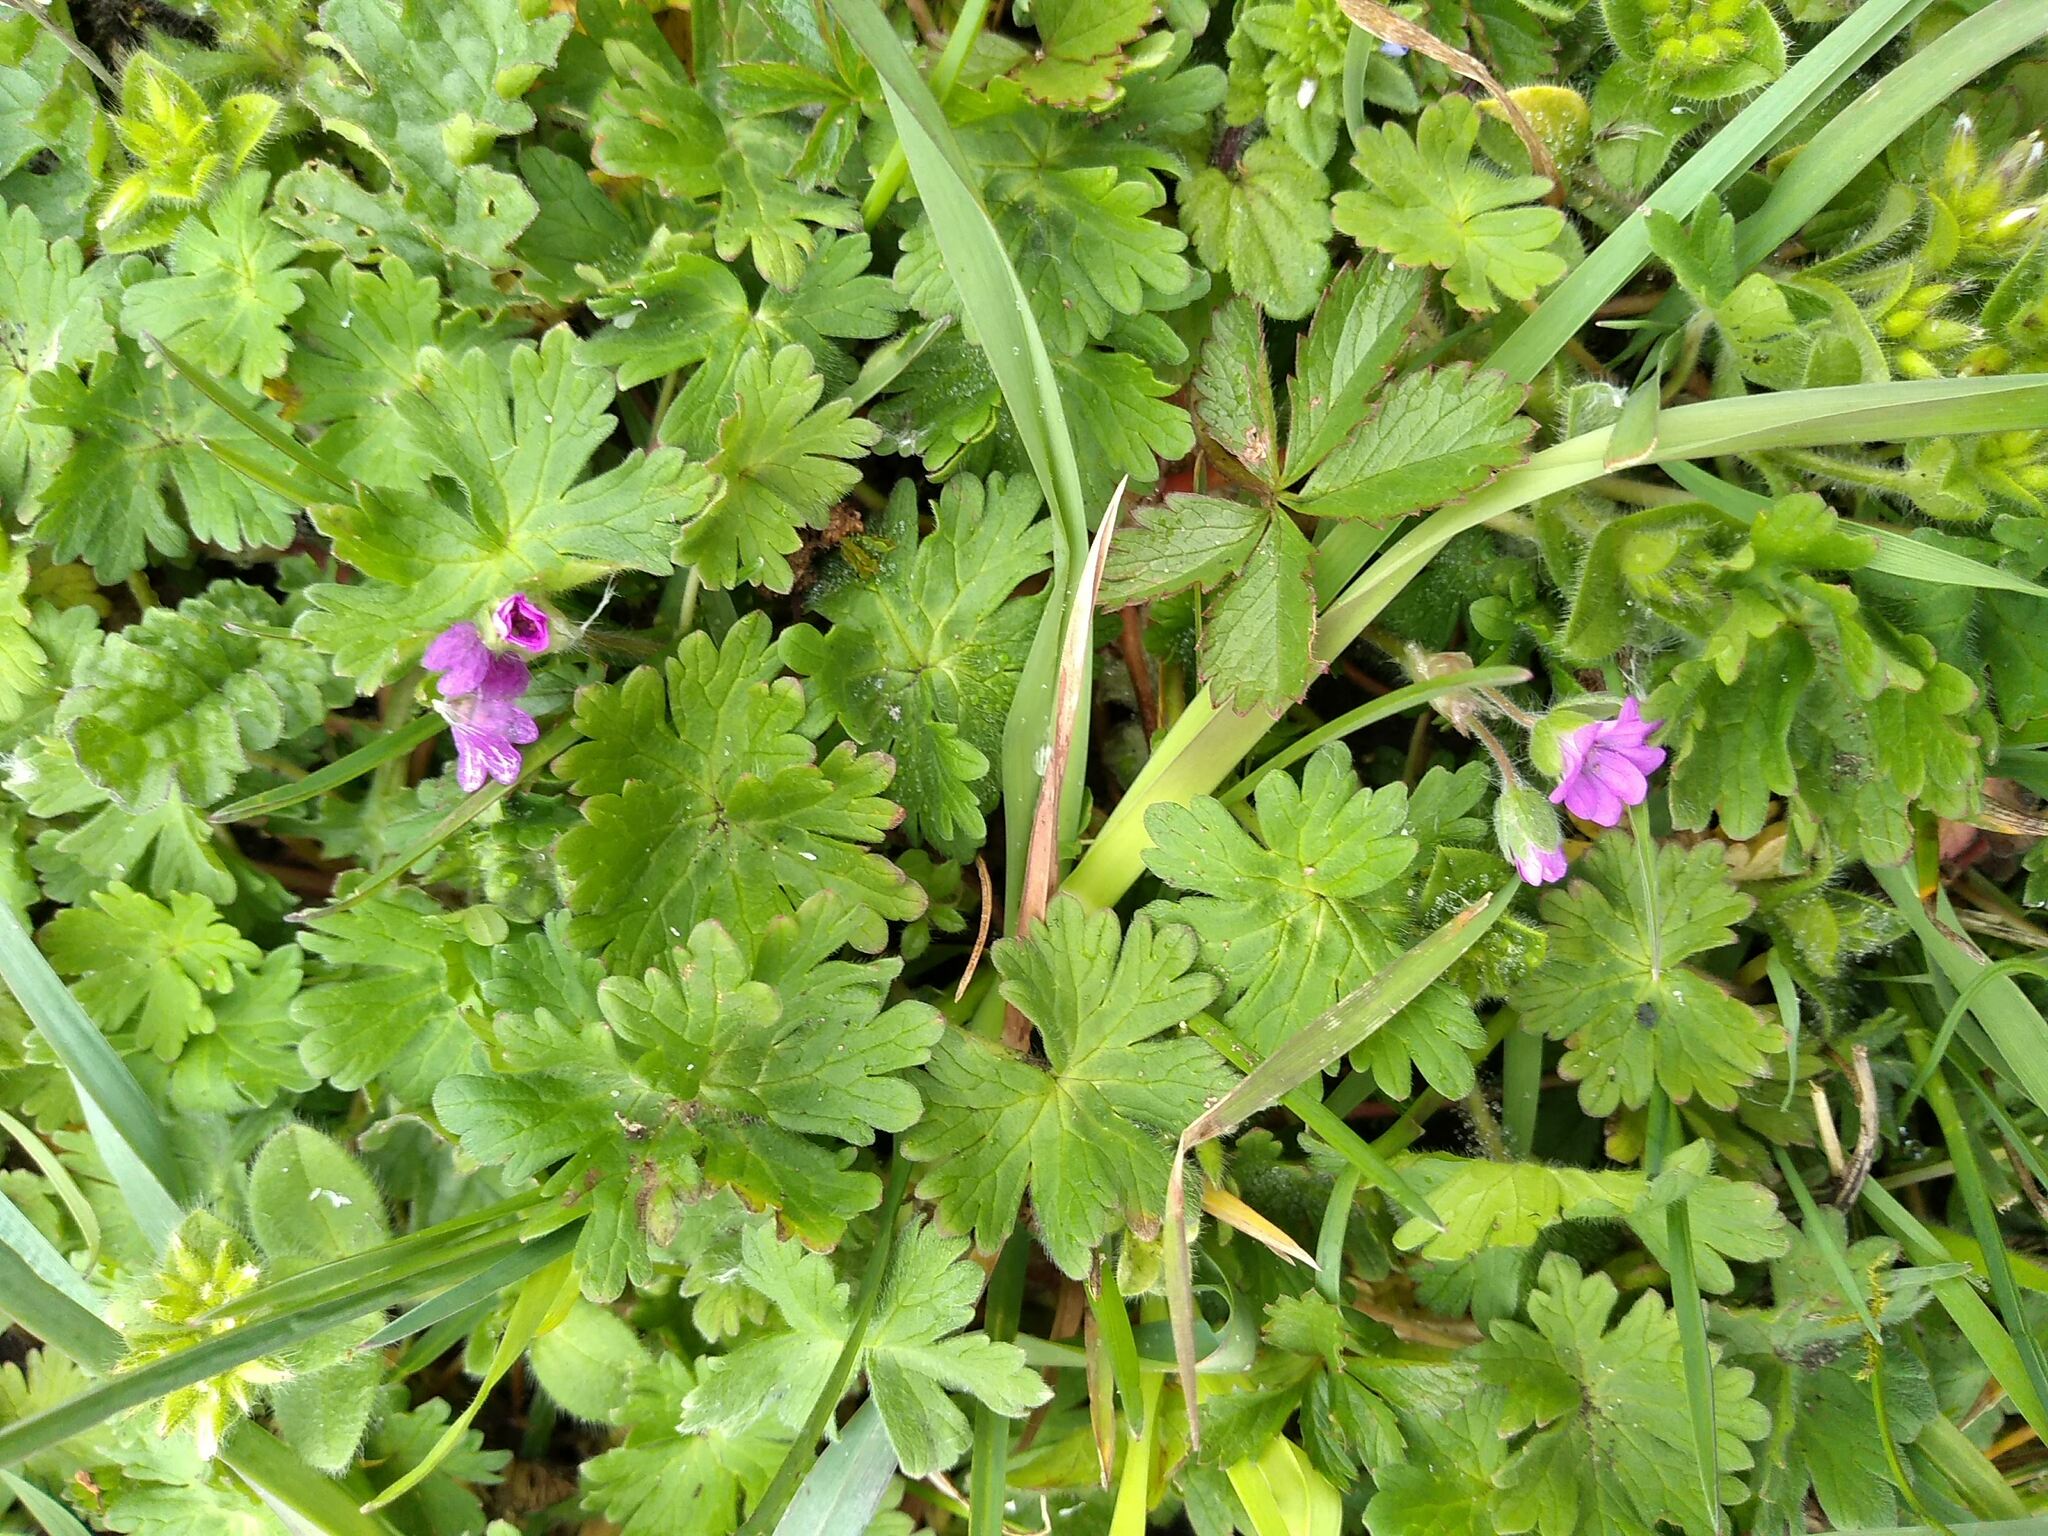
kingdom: Plantae
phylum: Tracheophyta
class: Magnoliopsida
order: Geraniales
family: Geraniaceae
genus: Geranium
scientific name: Geranium molle
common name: Dove's-foot crane's-bill
